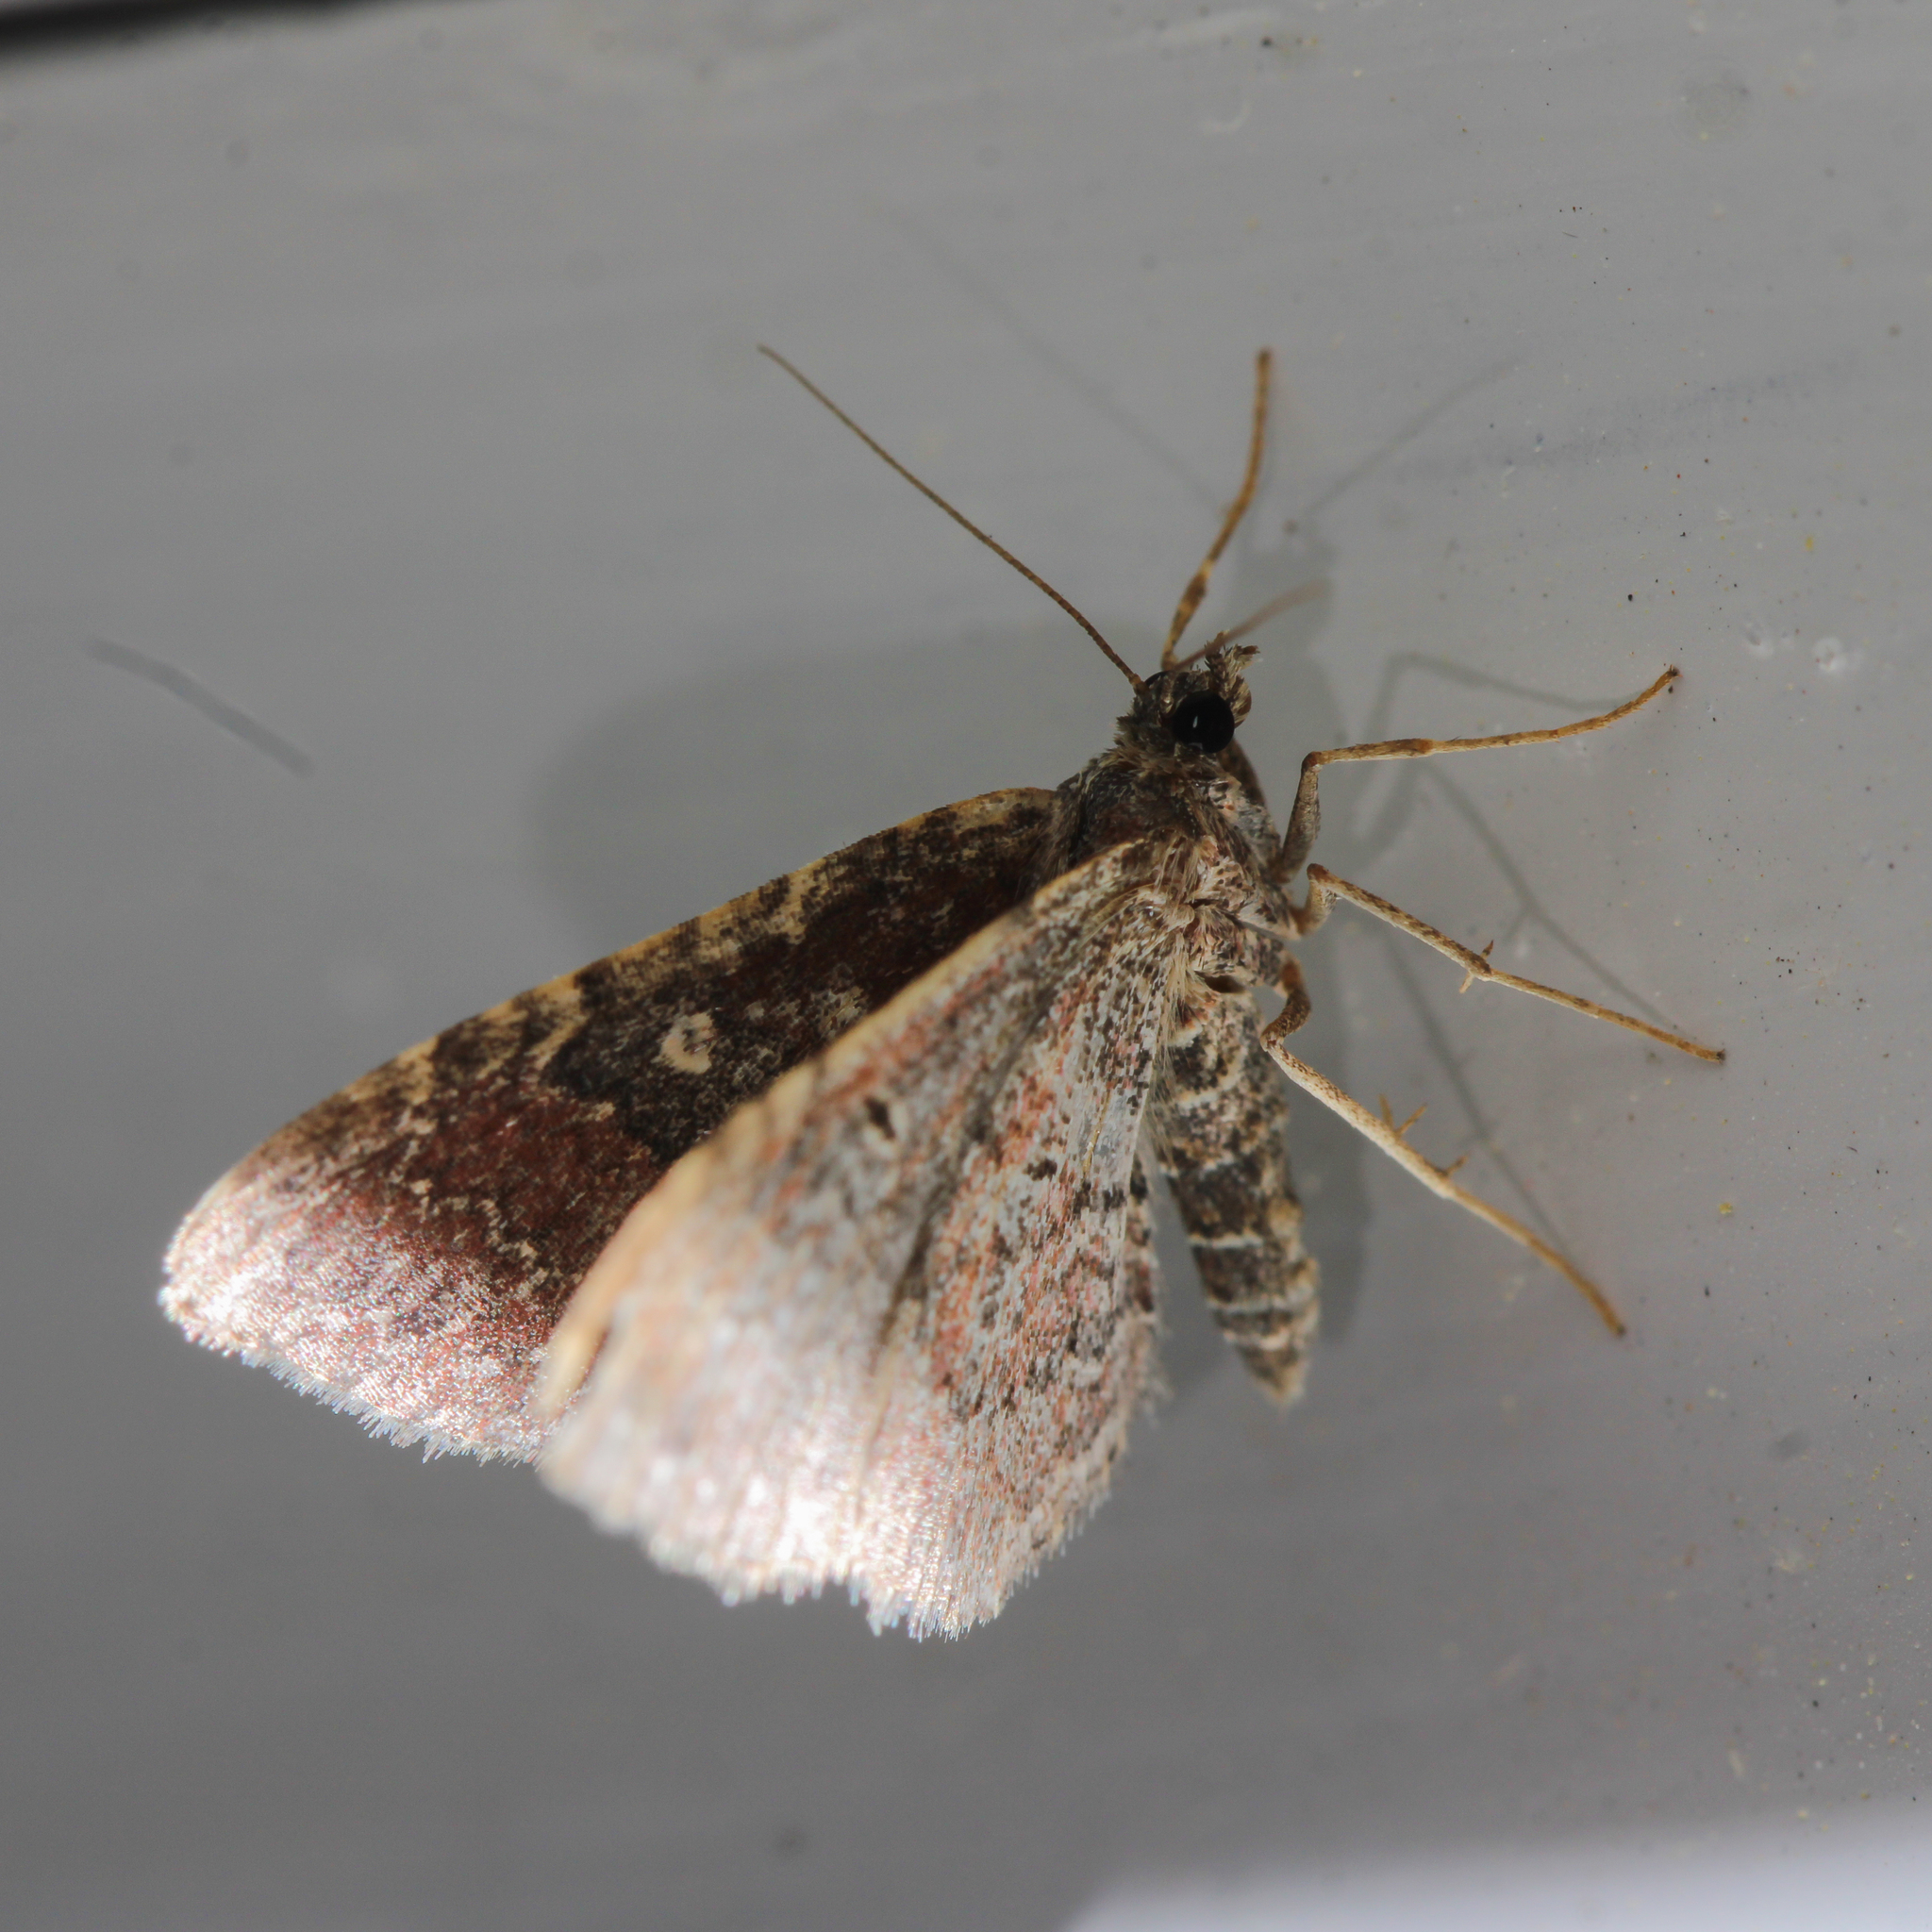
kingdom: Animalia
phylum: Arthropoda
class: Insecta
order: Lepidoptera
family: Geometridae
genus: Orthonama
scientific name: Orthonama obstipata
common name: The gem
